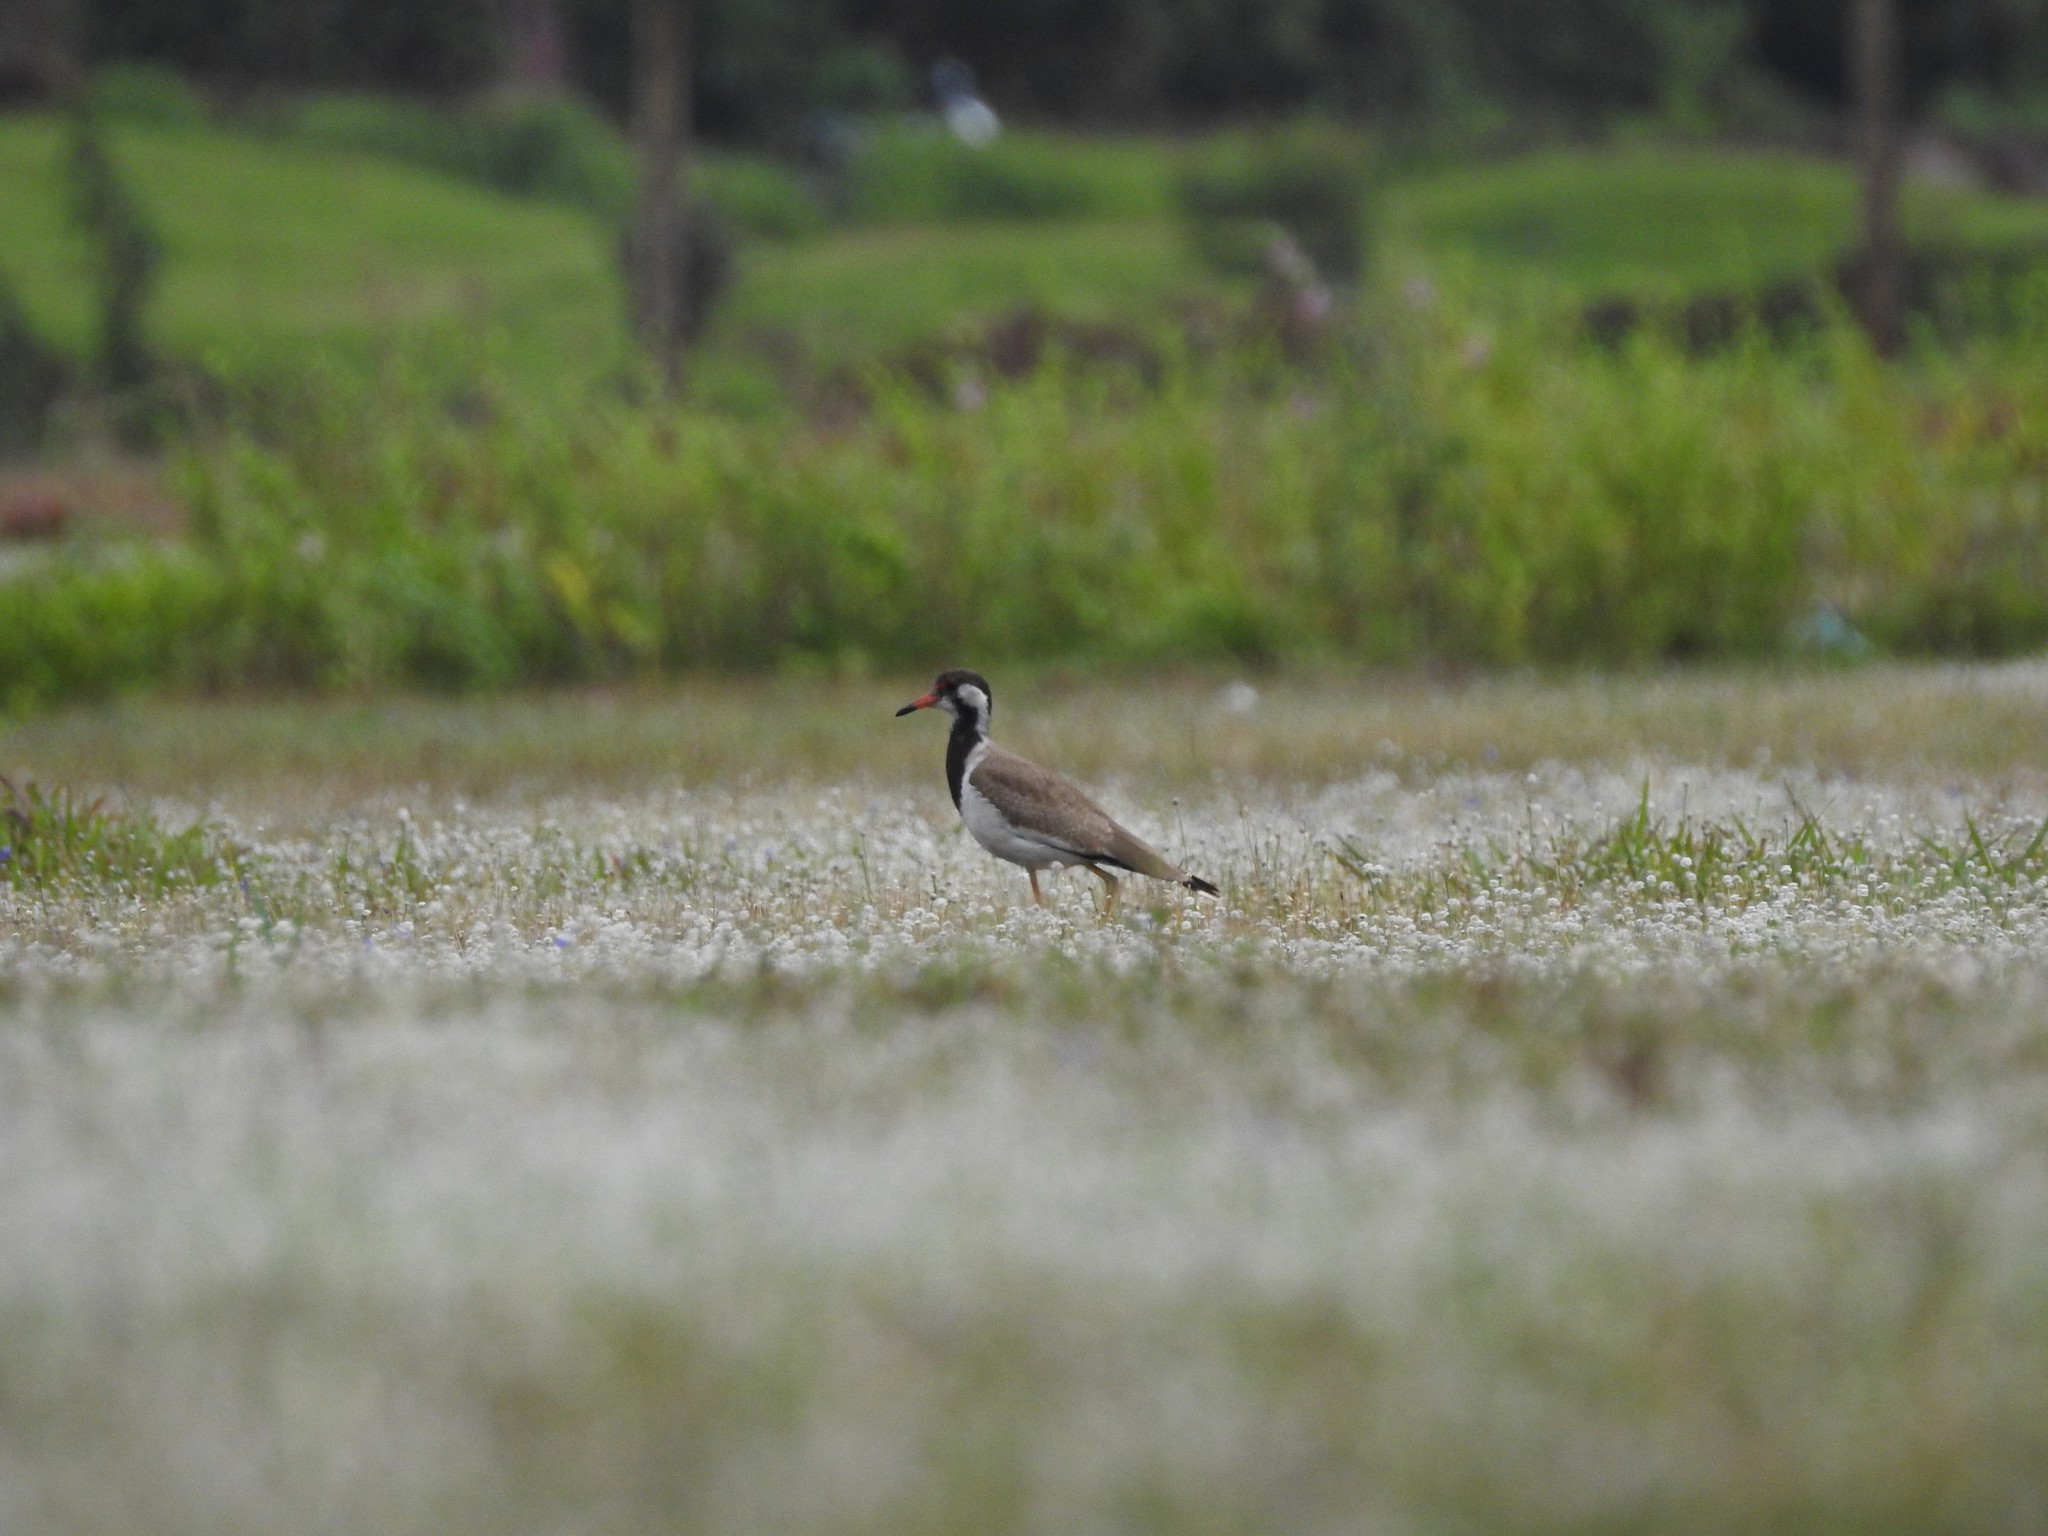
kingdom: Animalia
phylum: Chordata
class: Aves
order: Charadriiformes
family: Charadriidae
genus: Vanellus
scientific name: Vanellus indicus
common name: Red-wattled lapwing
